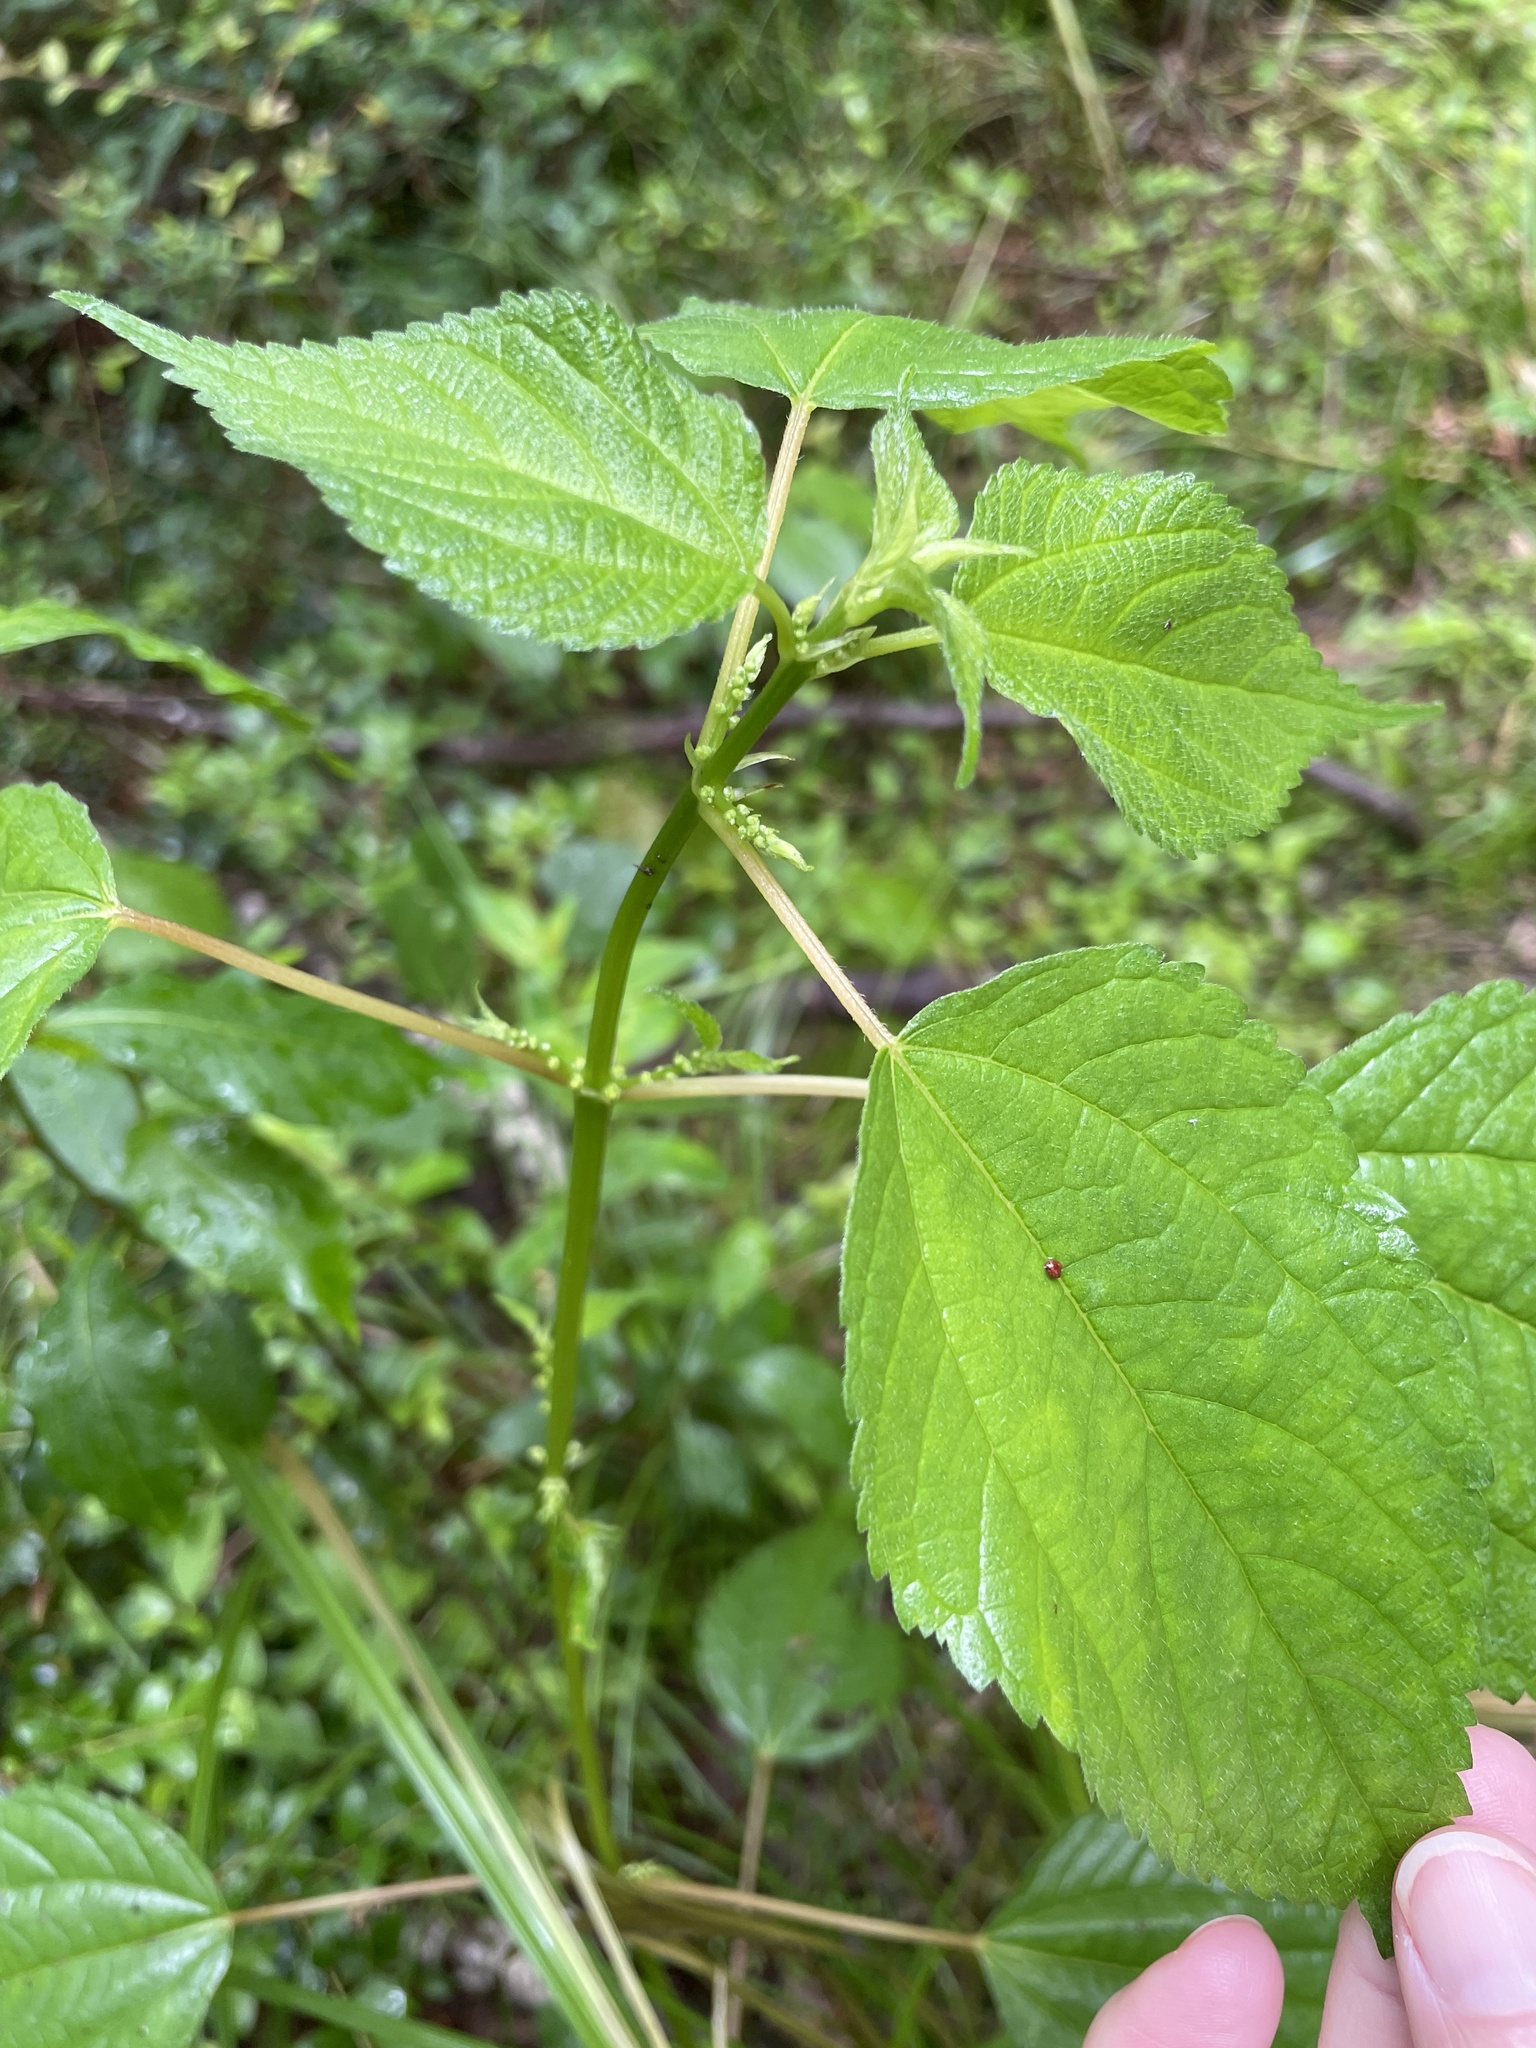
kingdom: Plantae
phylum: Tracheophyta
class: Magnoliopsida
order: Rosales
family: Urticaceae
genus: Boehmeria
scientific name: Boehmeria cylindrica
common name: Bog-hemp
